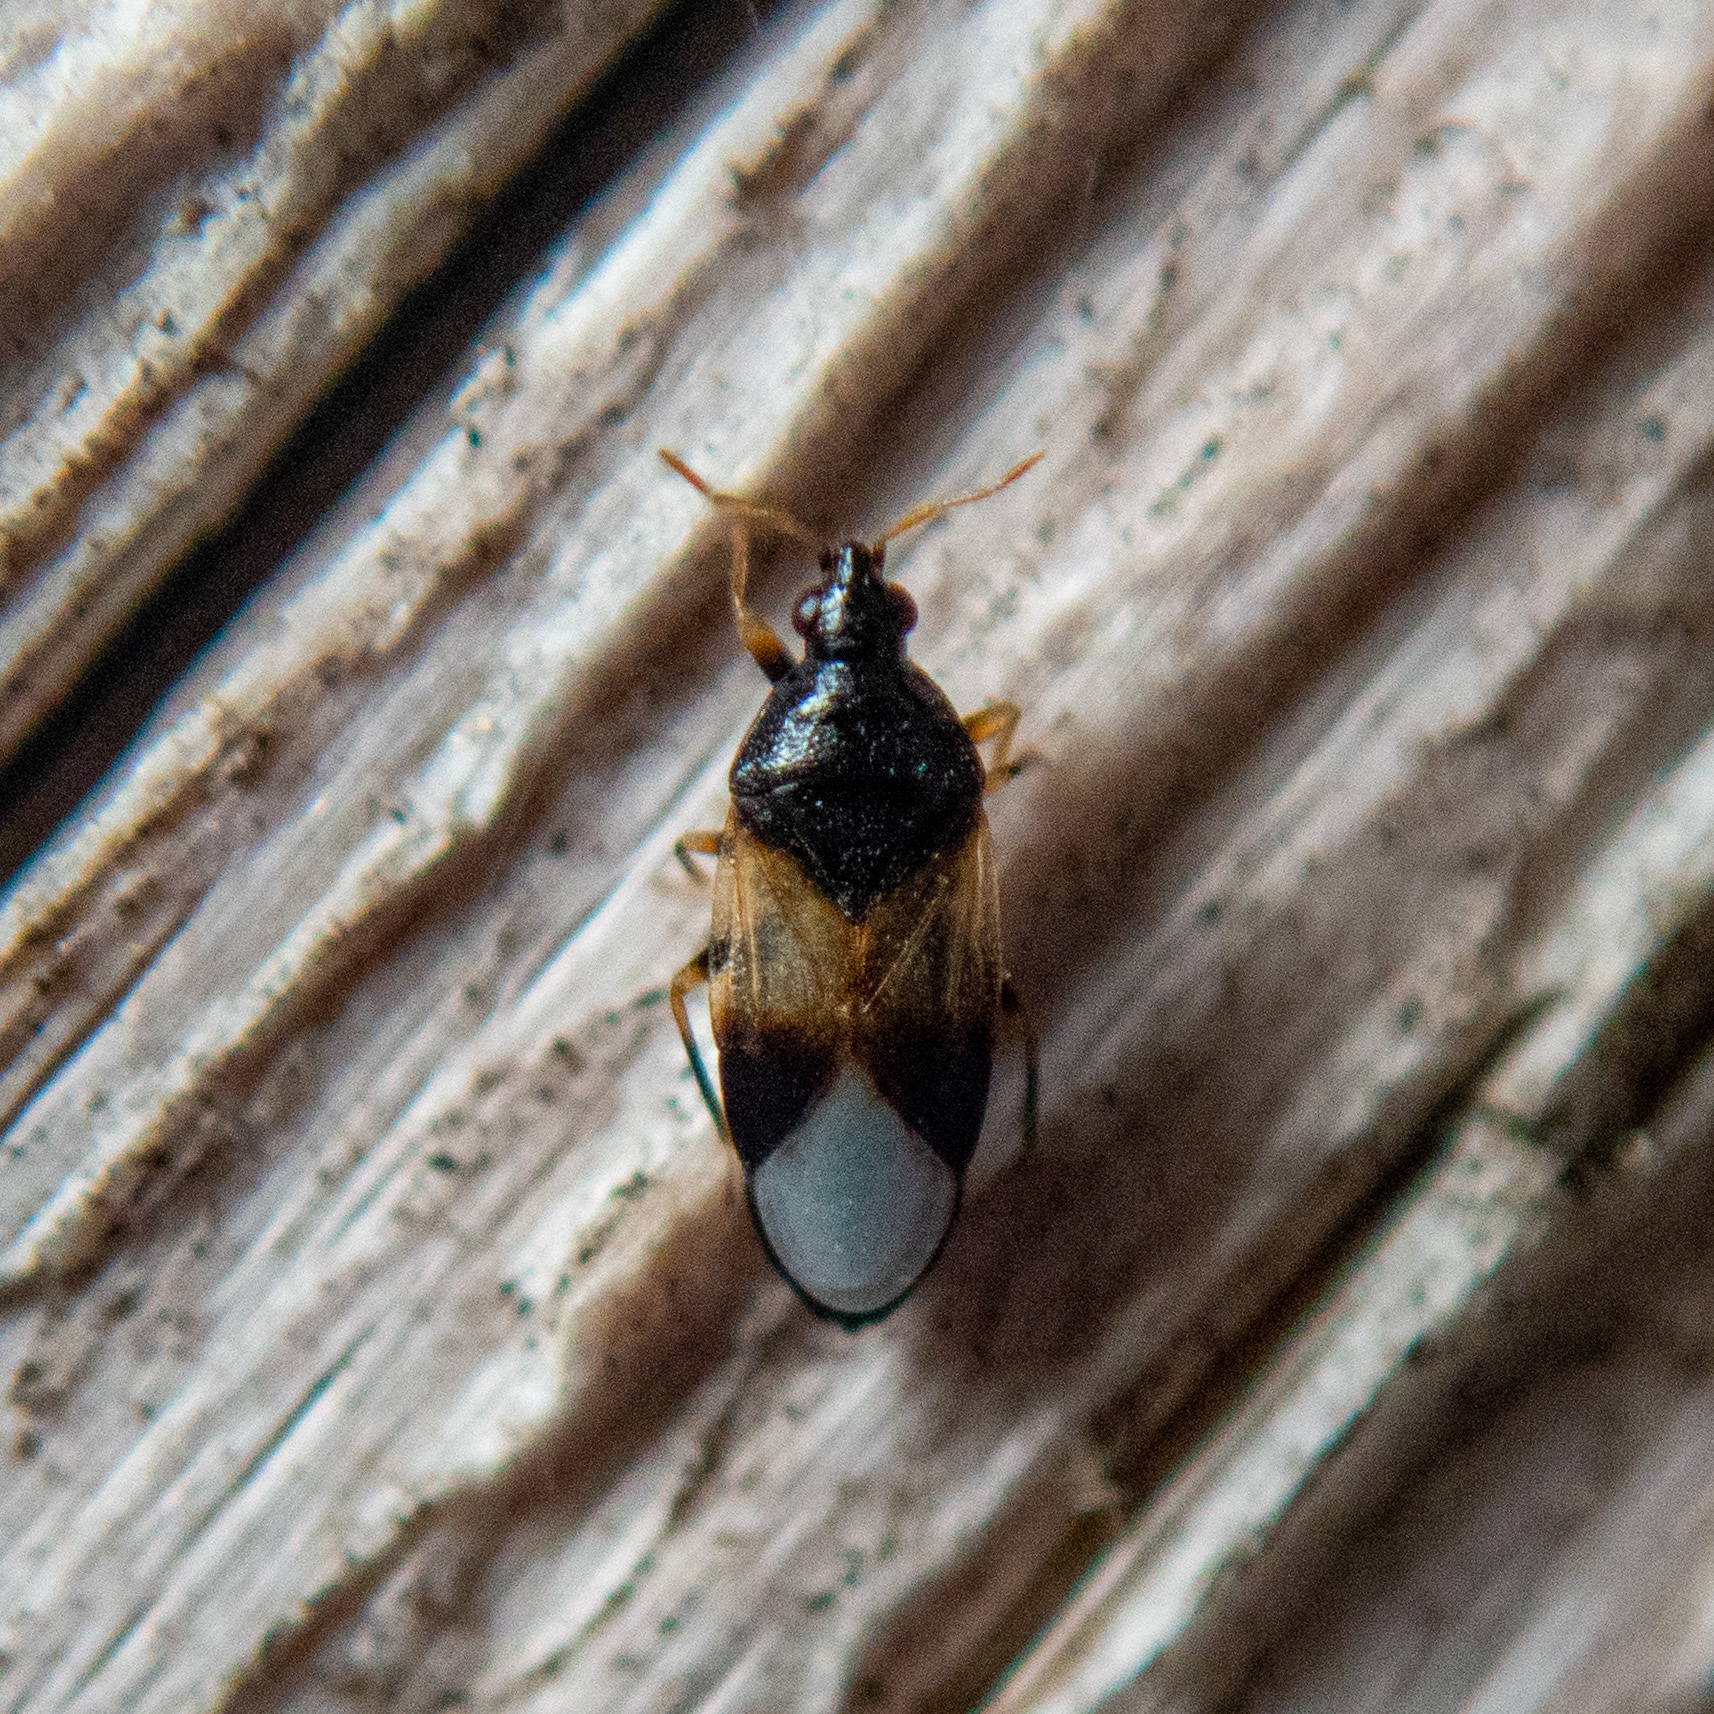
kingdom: Animalia
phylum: Arthropoda
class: Insecta
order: Hemiptera
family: Anthocoridae
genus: Orius
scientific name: Orius insidiosus
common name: Insidious flower bug
